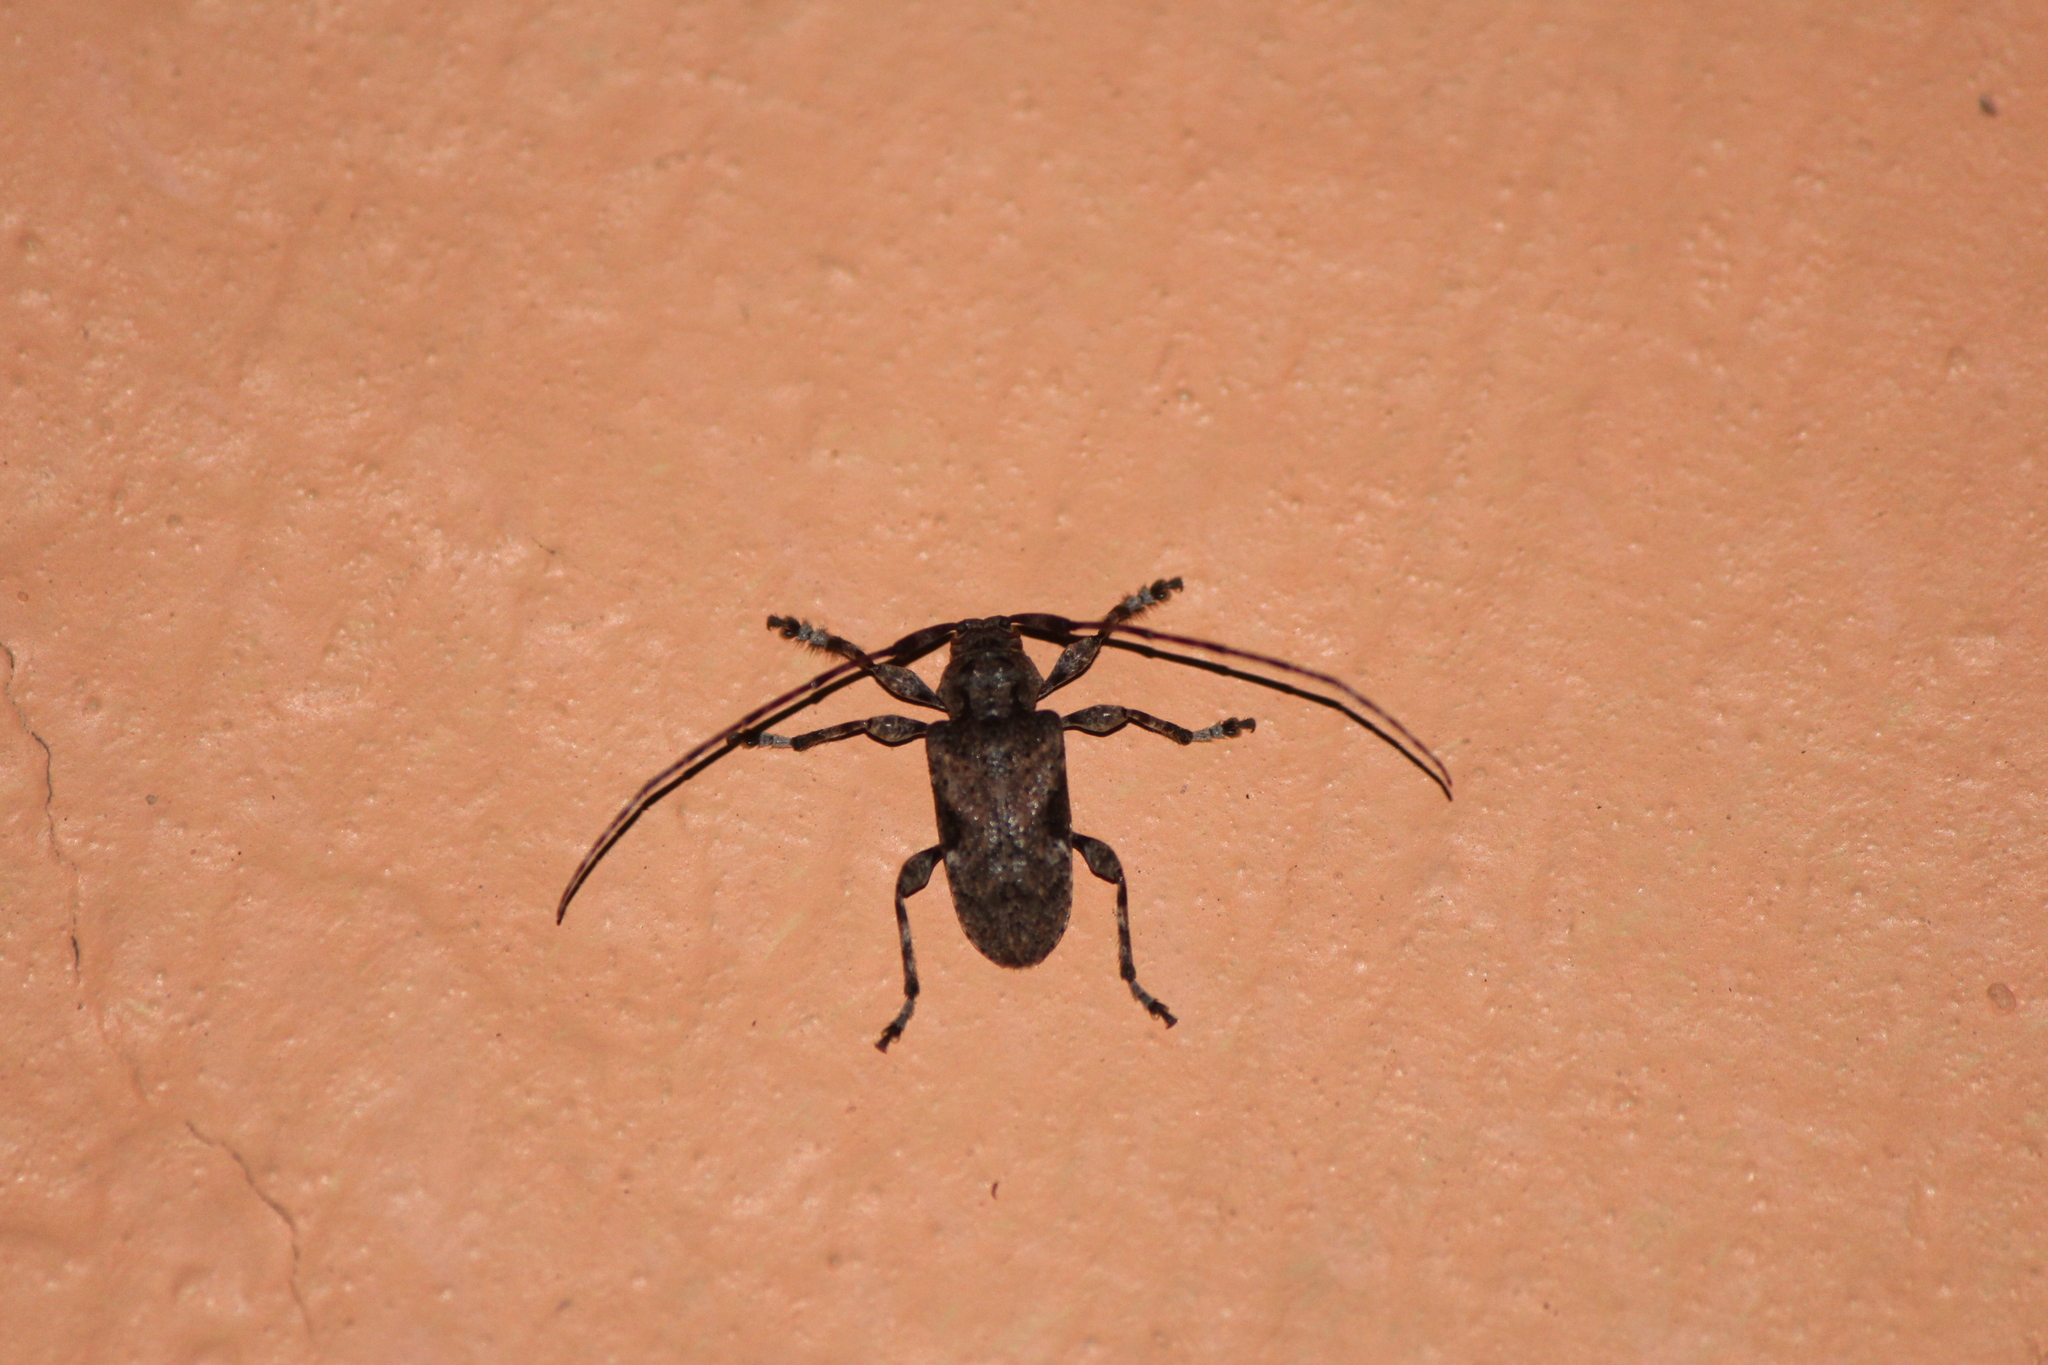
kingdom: Animalia
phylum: Arthropoda
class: Insecta
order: Coleoptera
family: Cerambycidae
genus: Lagocheirus
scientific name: Lagocheirus araneiformis
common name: Beetle
